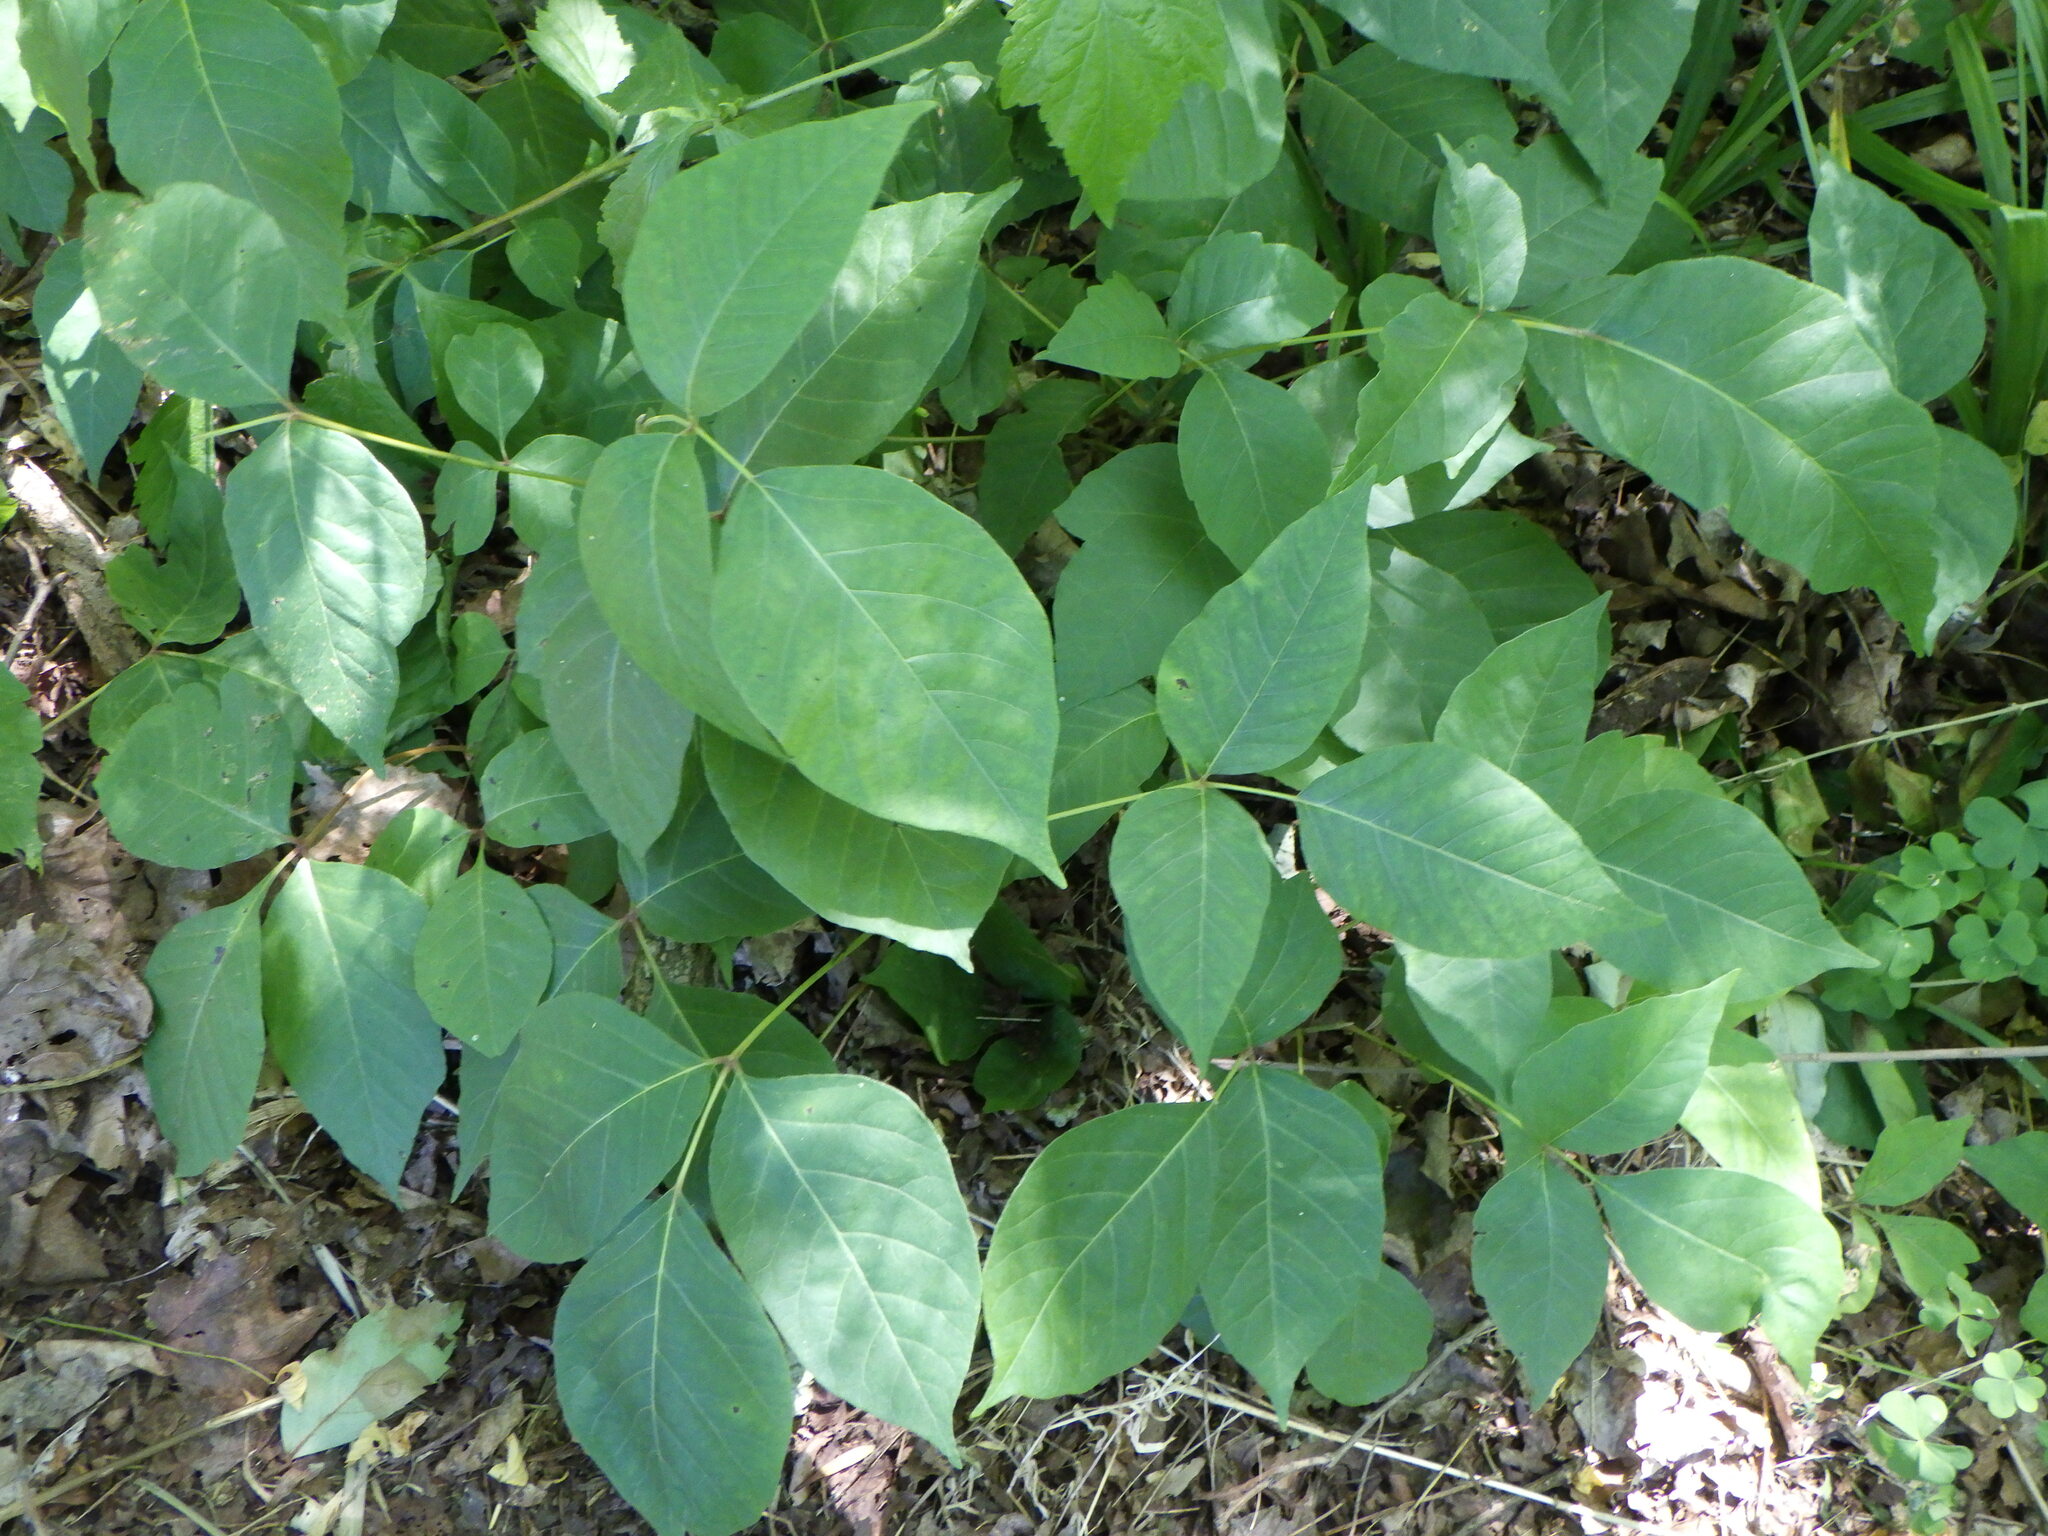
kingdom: Plantae
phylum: Tracheophyta
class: Magnoliopsida
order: Sapindales
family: Anacardiaceae
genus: Toxicodendron
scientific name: Toxicodendron radicans
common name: Poison ivy
